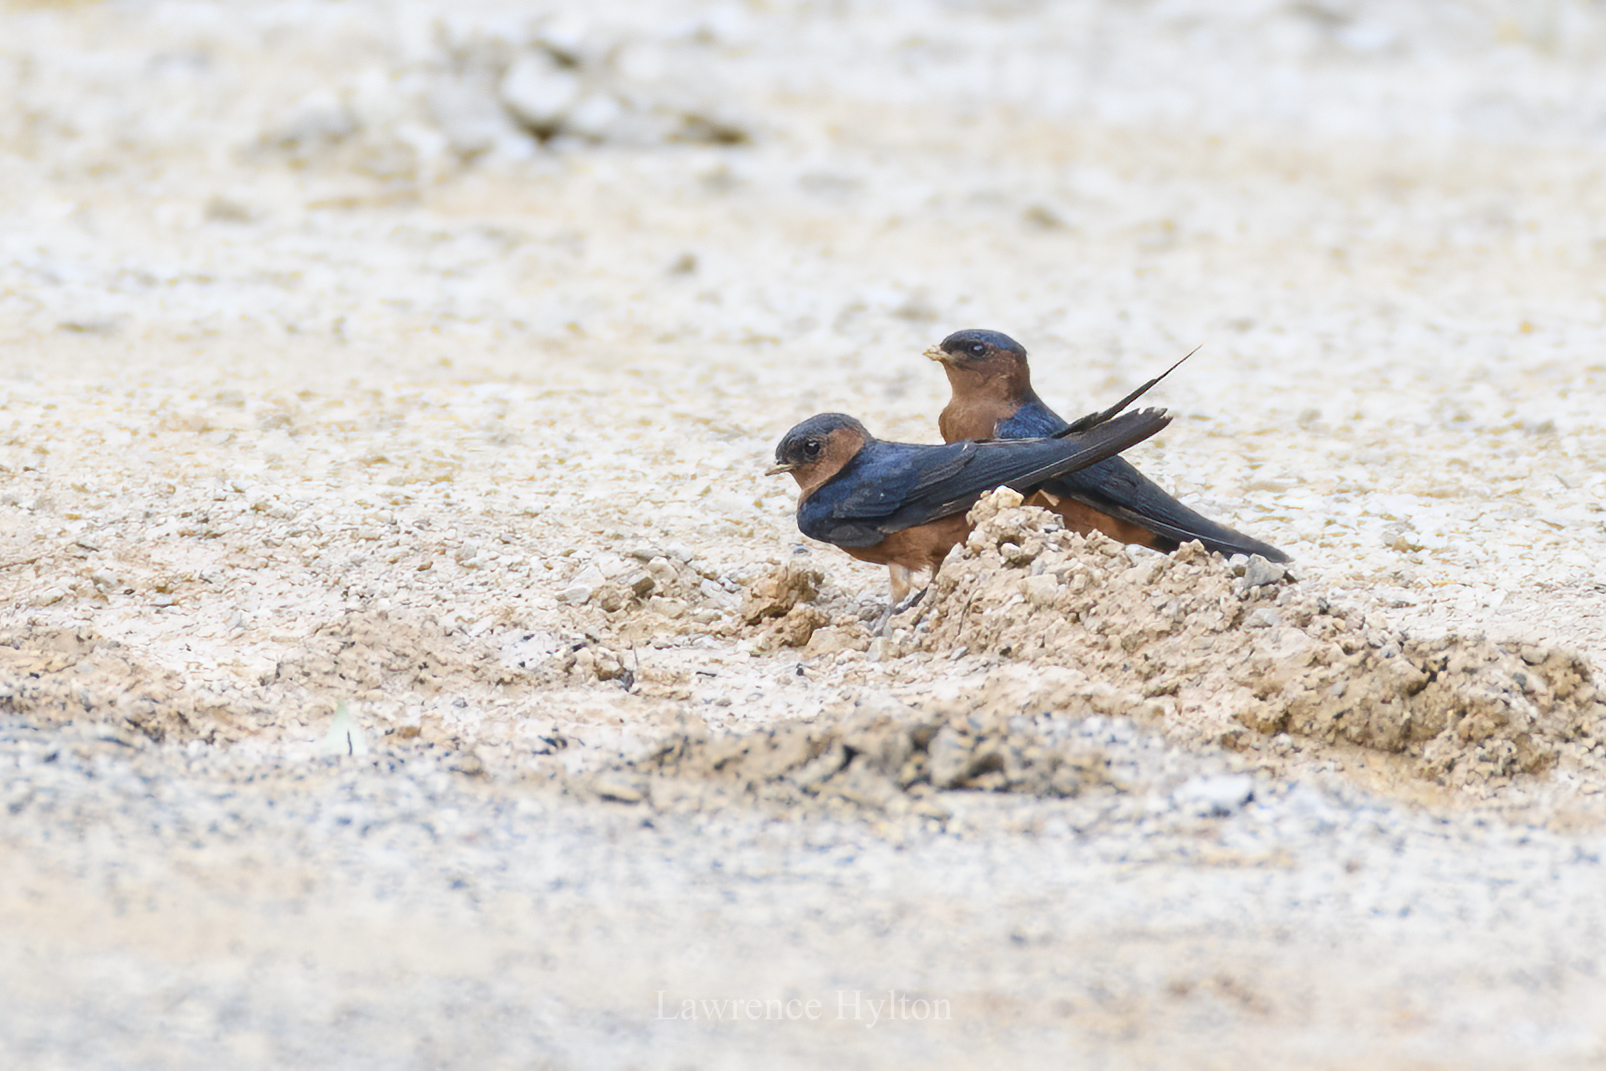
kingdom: Animalia
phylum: Chordata
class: Aves
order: Passeriformes
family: Hirundinidae
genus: Cecropis
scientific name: Cecropis badia
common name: Rufous-bellied swallow
